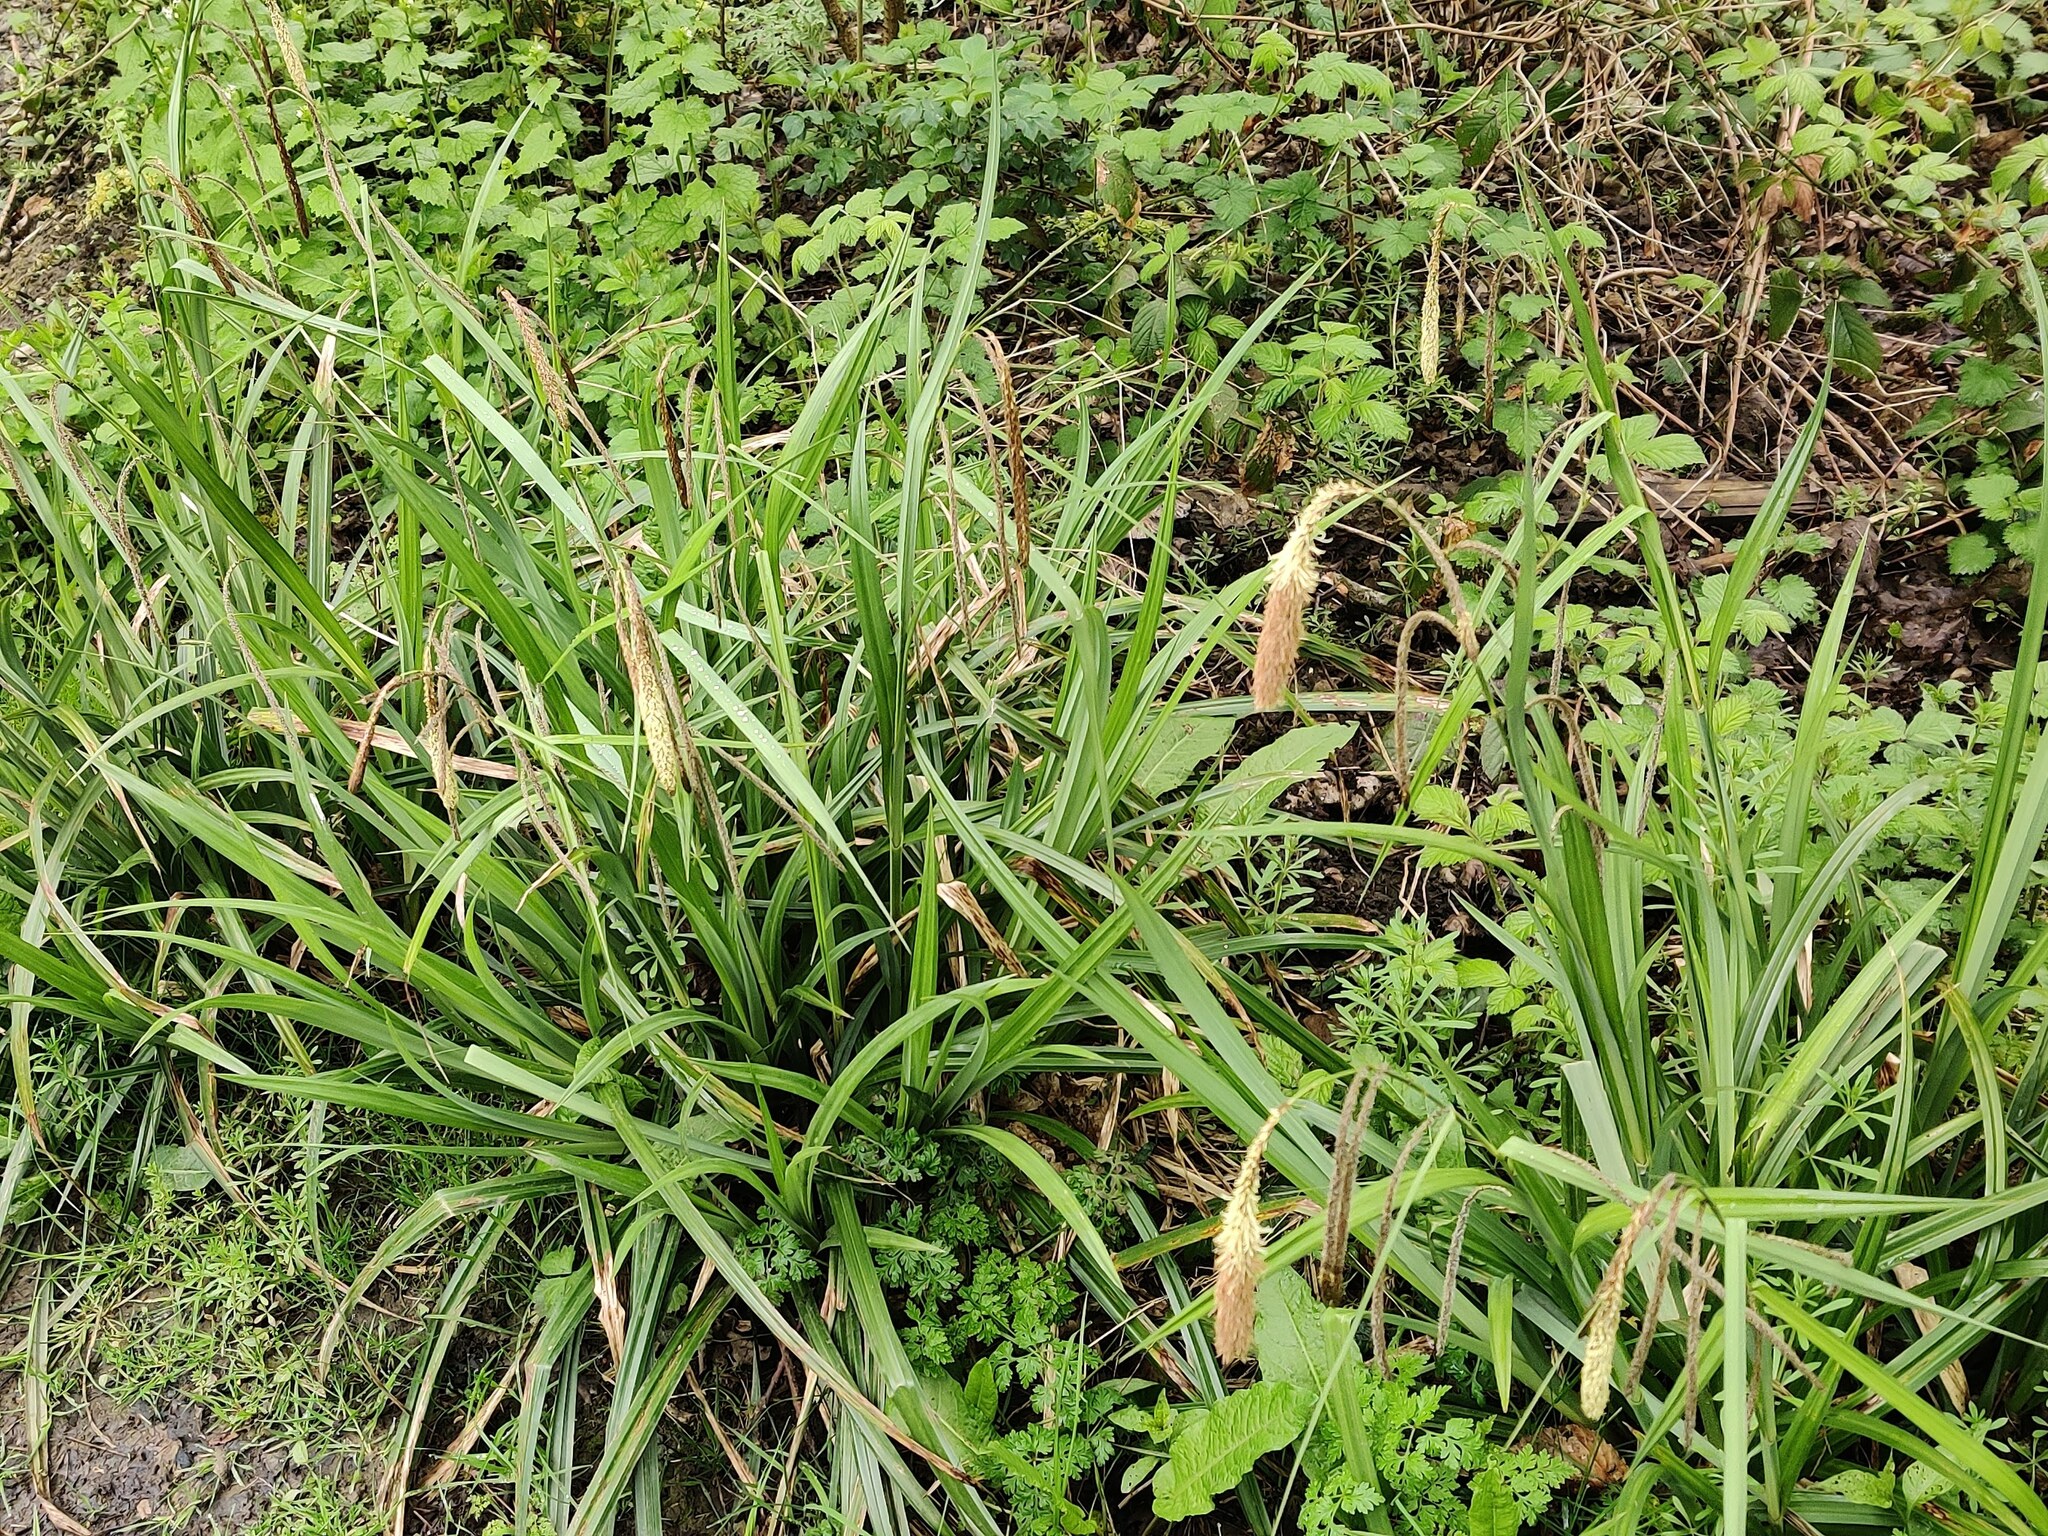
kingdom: Plantae
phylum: Tracheophyta
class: Liliopsida
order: Poales
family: Cyperaceae
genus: Carex
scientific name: Carex pendula
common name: Pendulous sedge
